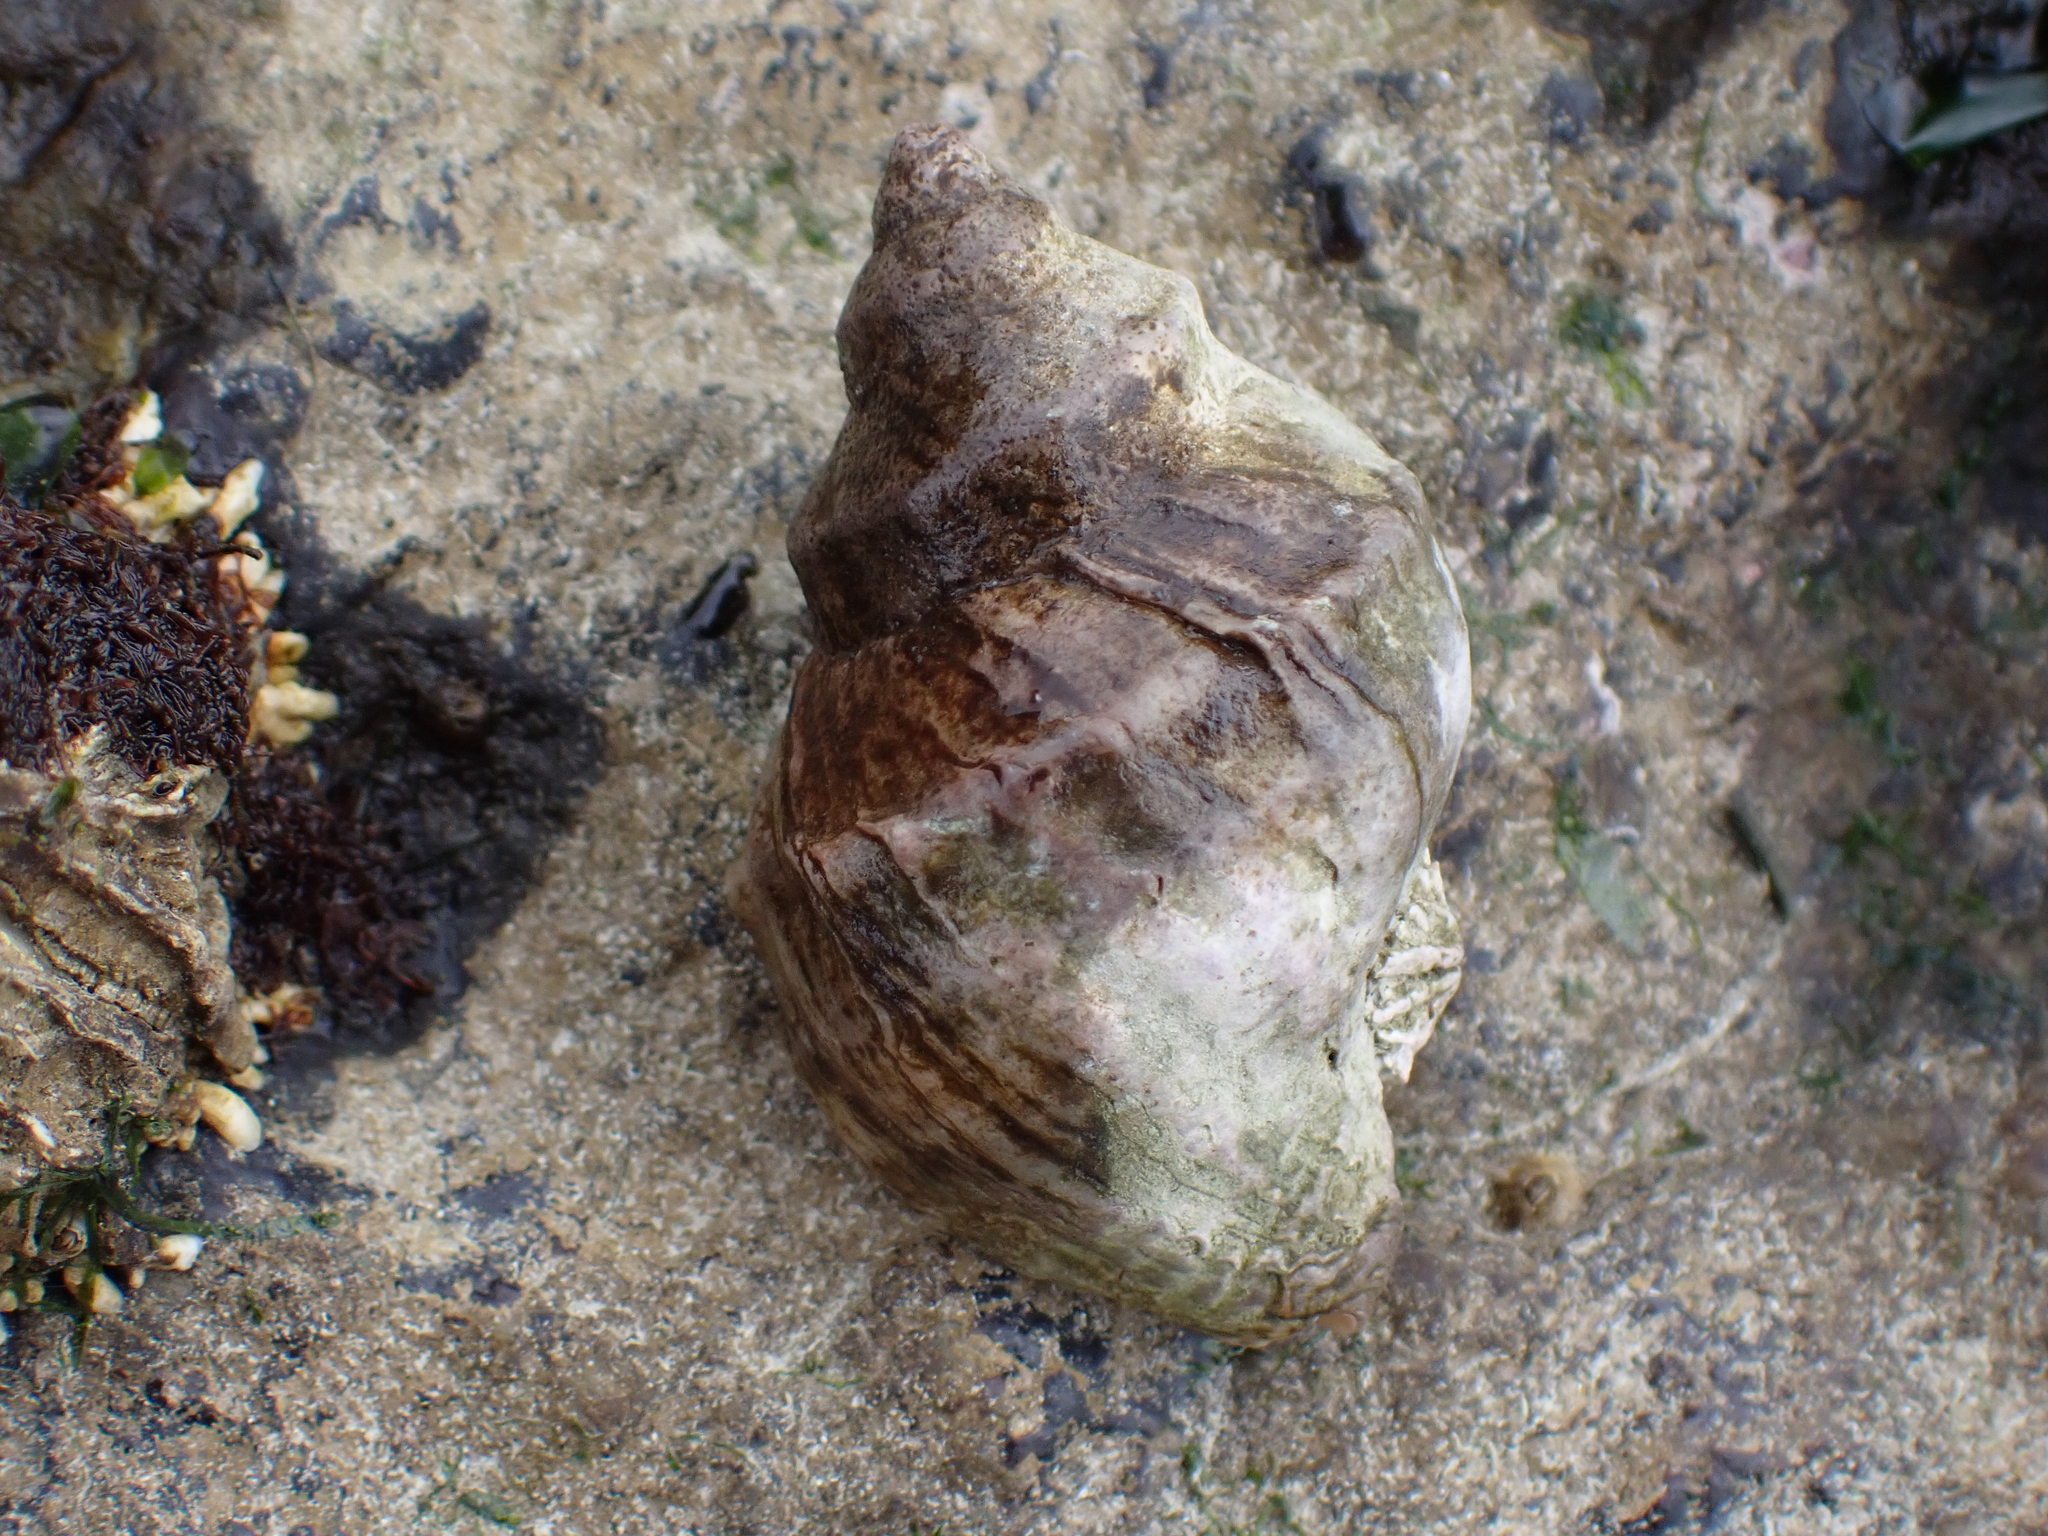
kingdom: Animalia
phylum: Mollusca
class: Gastropoda
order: Neogastropoda
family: Muricidae
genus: Nucella
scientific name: Nucella lamellosa
